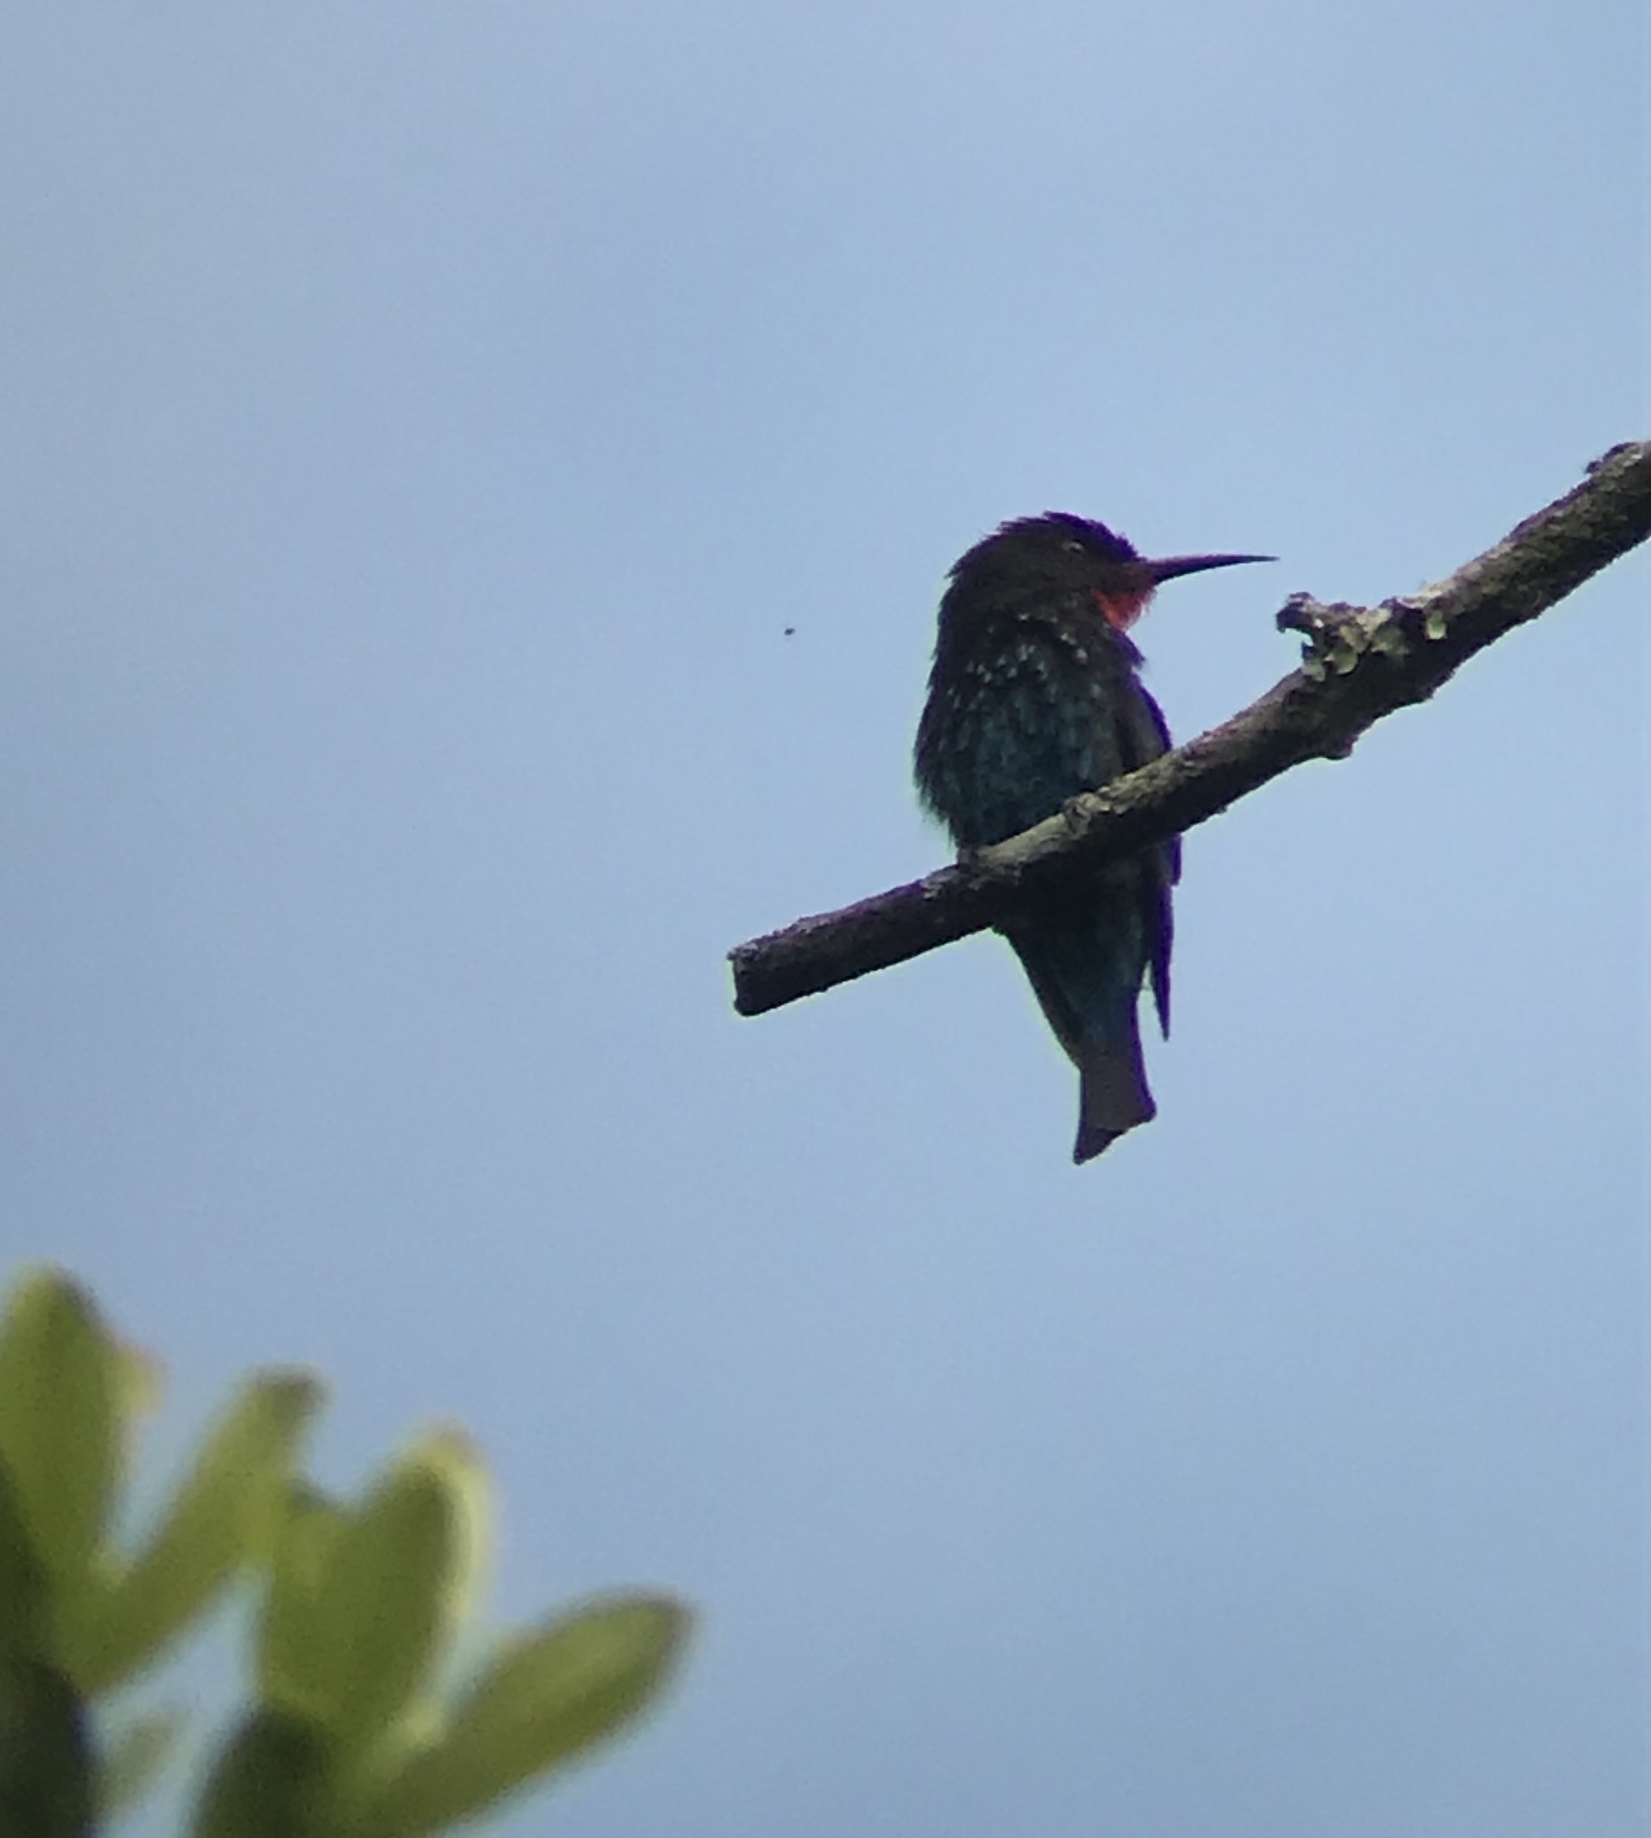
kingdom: Animalia
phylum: Chordata
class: Aves
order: Coraciiformes
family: Meropidae
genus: Merops
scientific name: Merops gularis
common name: Black bee-eater
